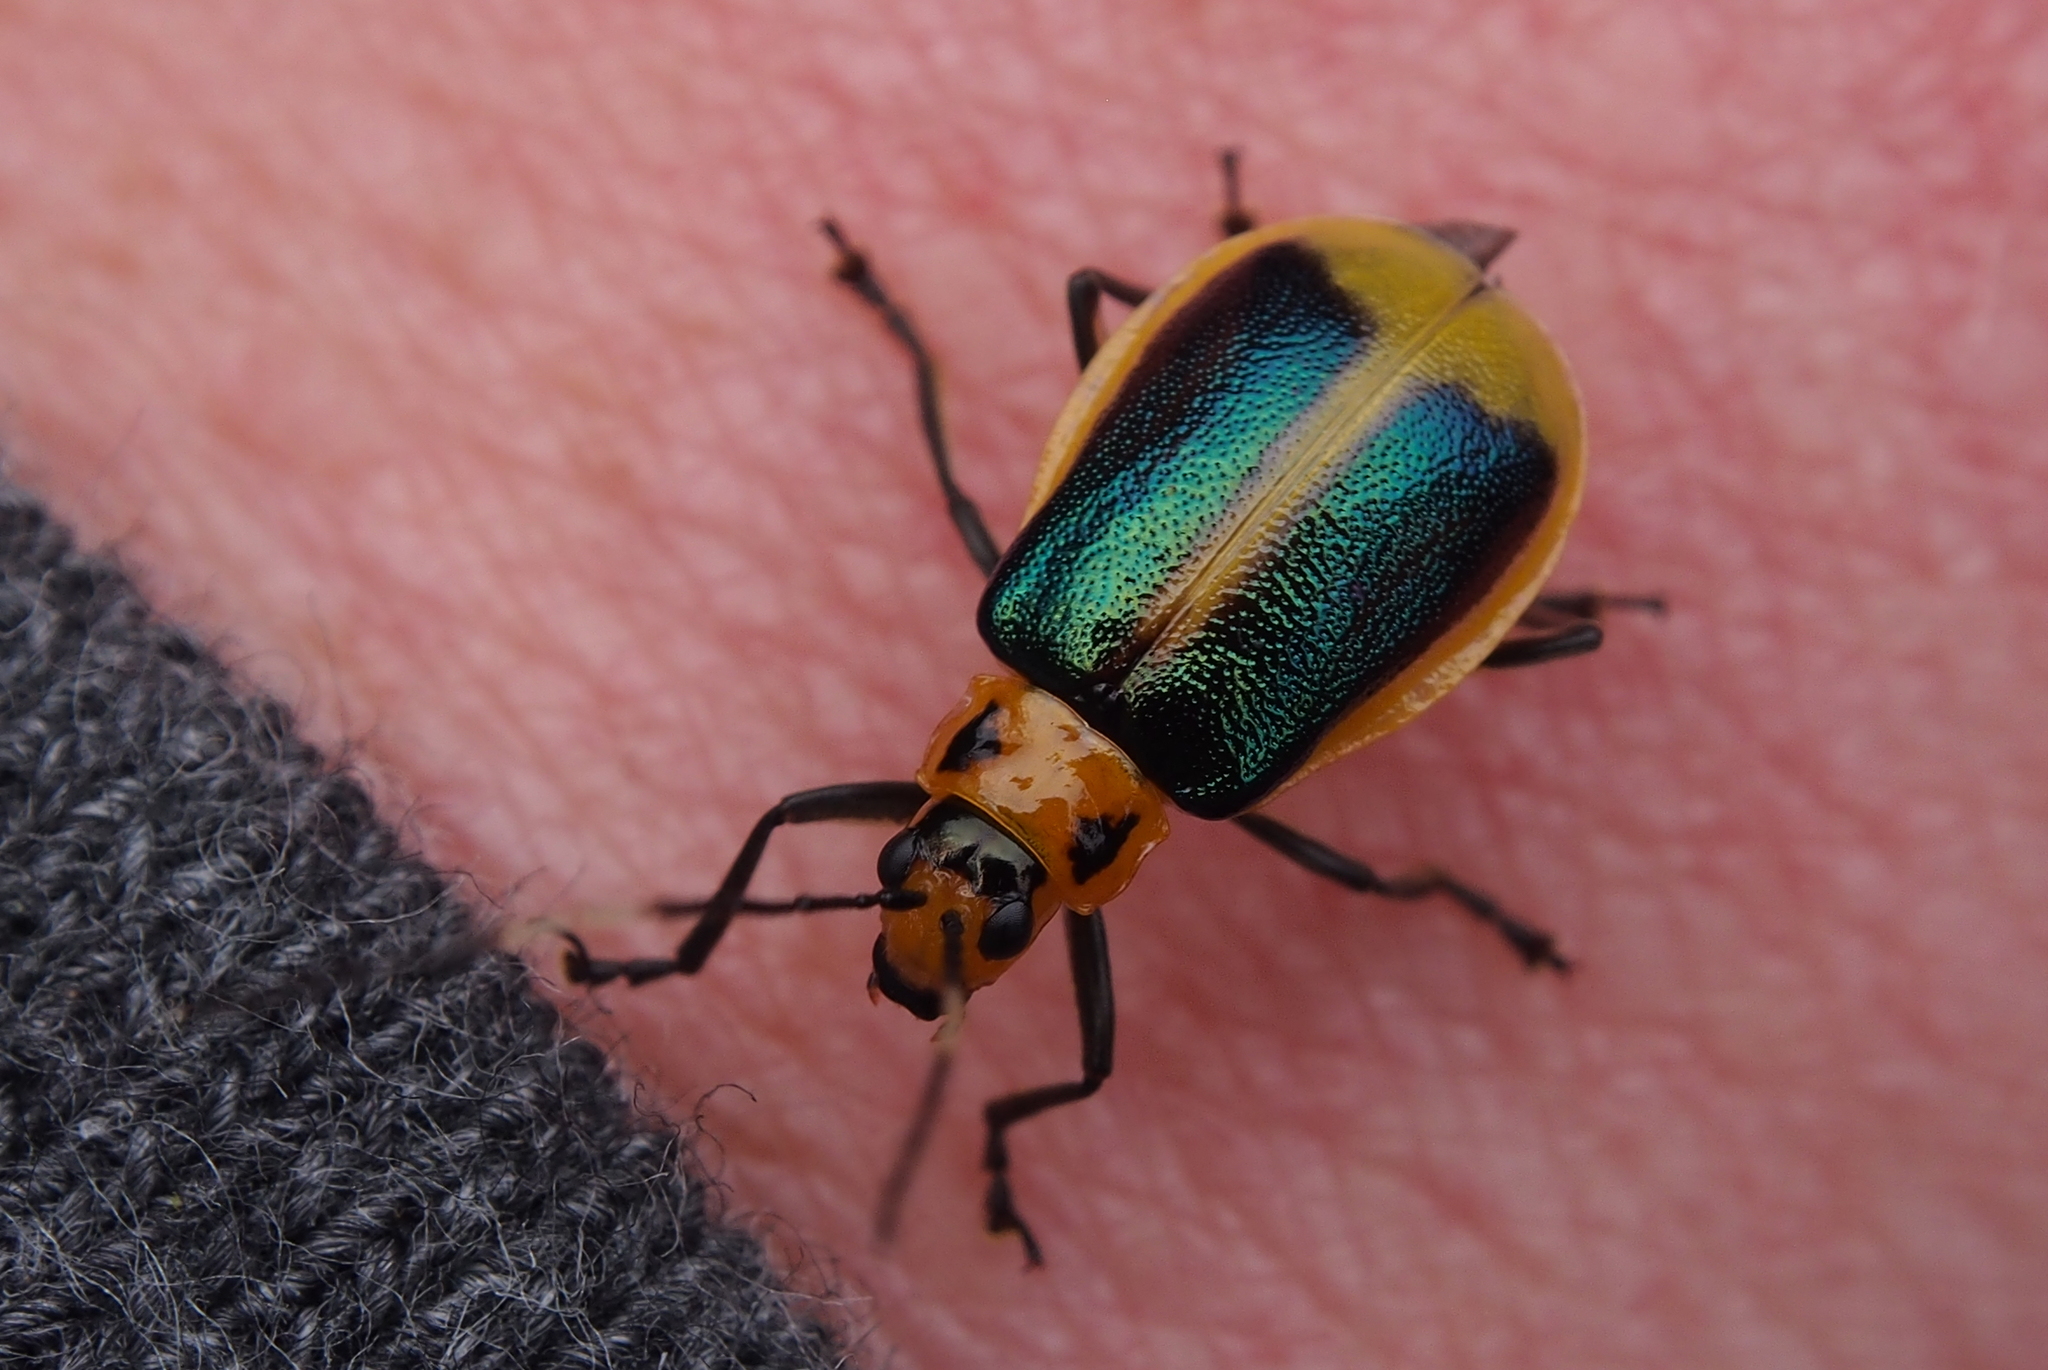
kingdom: Animalia
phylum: Arthropoda
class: Insecta
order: Coleoptera
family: Chrysomelidae
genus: Isotes
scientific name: Isotes
